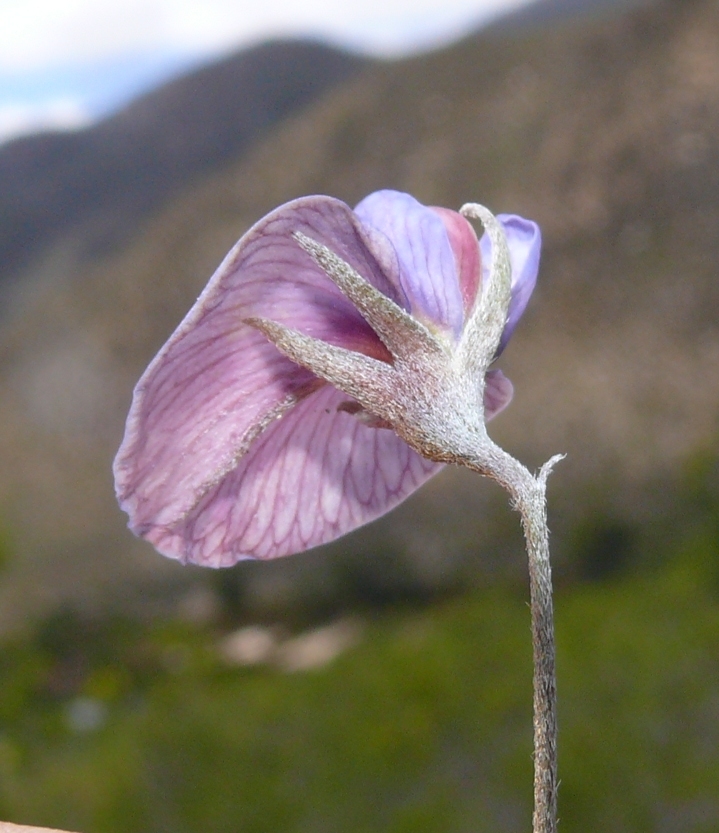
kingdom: Plantae
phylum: Tracheophyta
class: Magnoliopsida
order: Fabales
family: Fabaceae
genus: Lotononis
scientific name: Lotononis argentea
